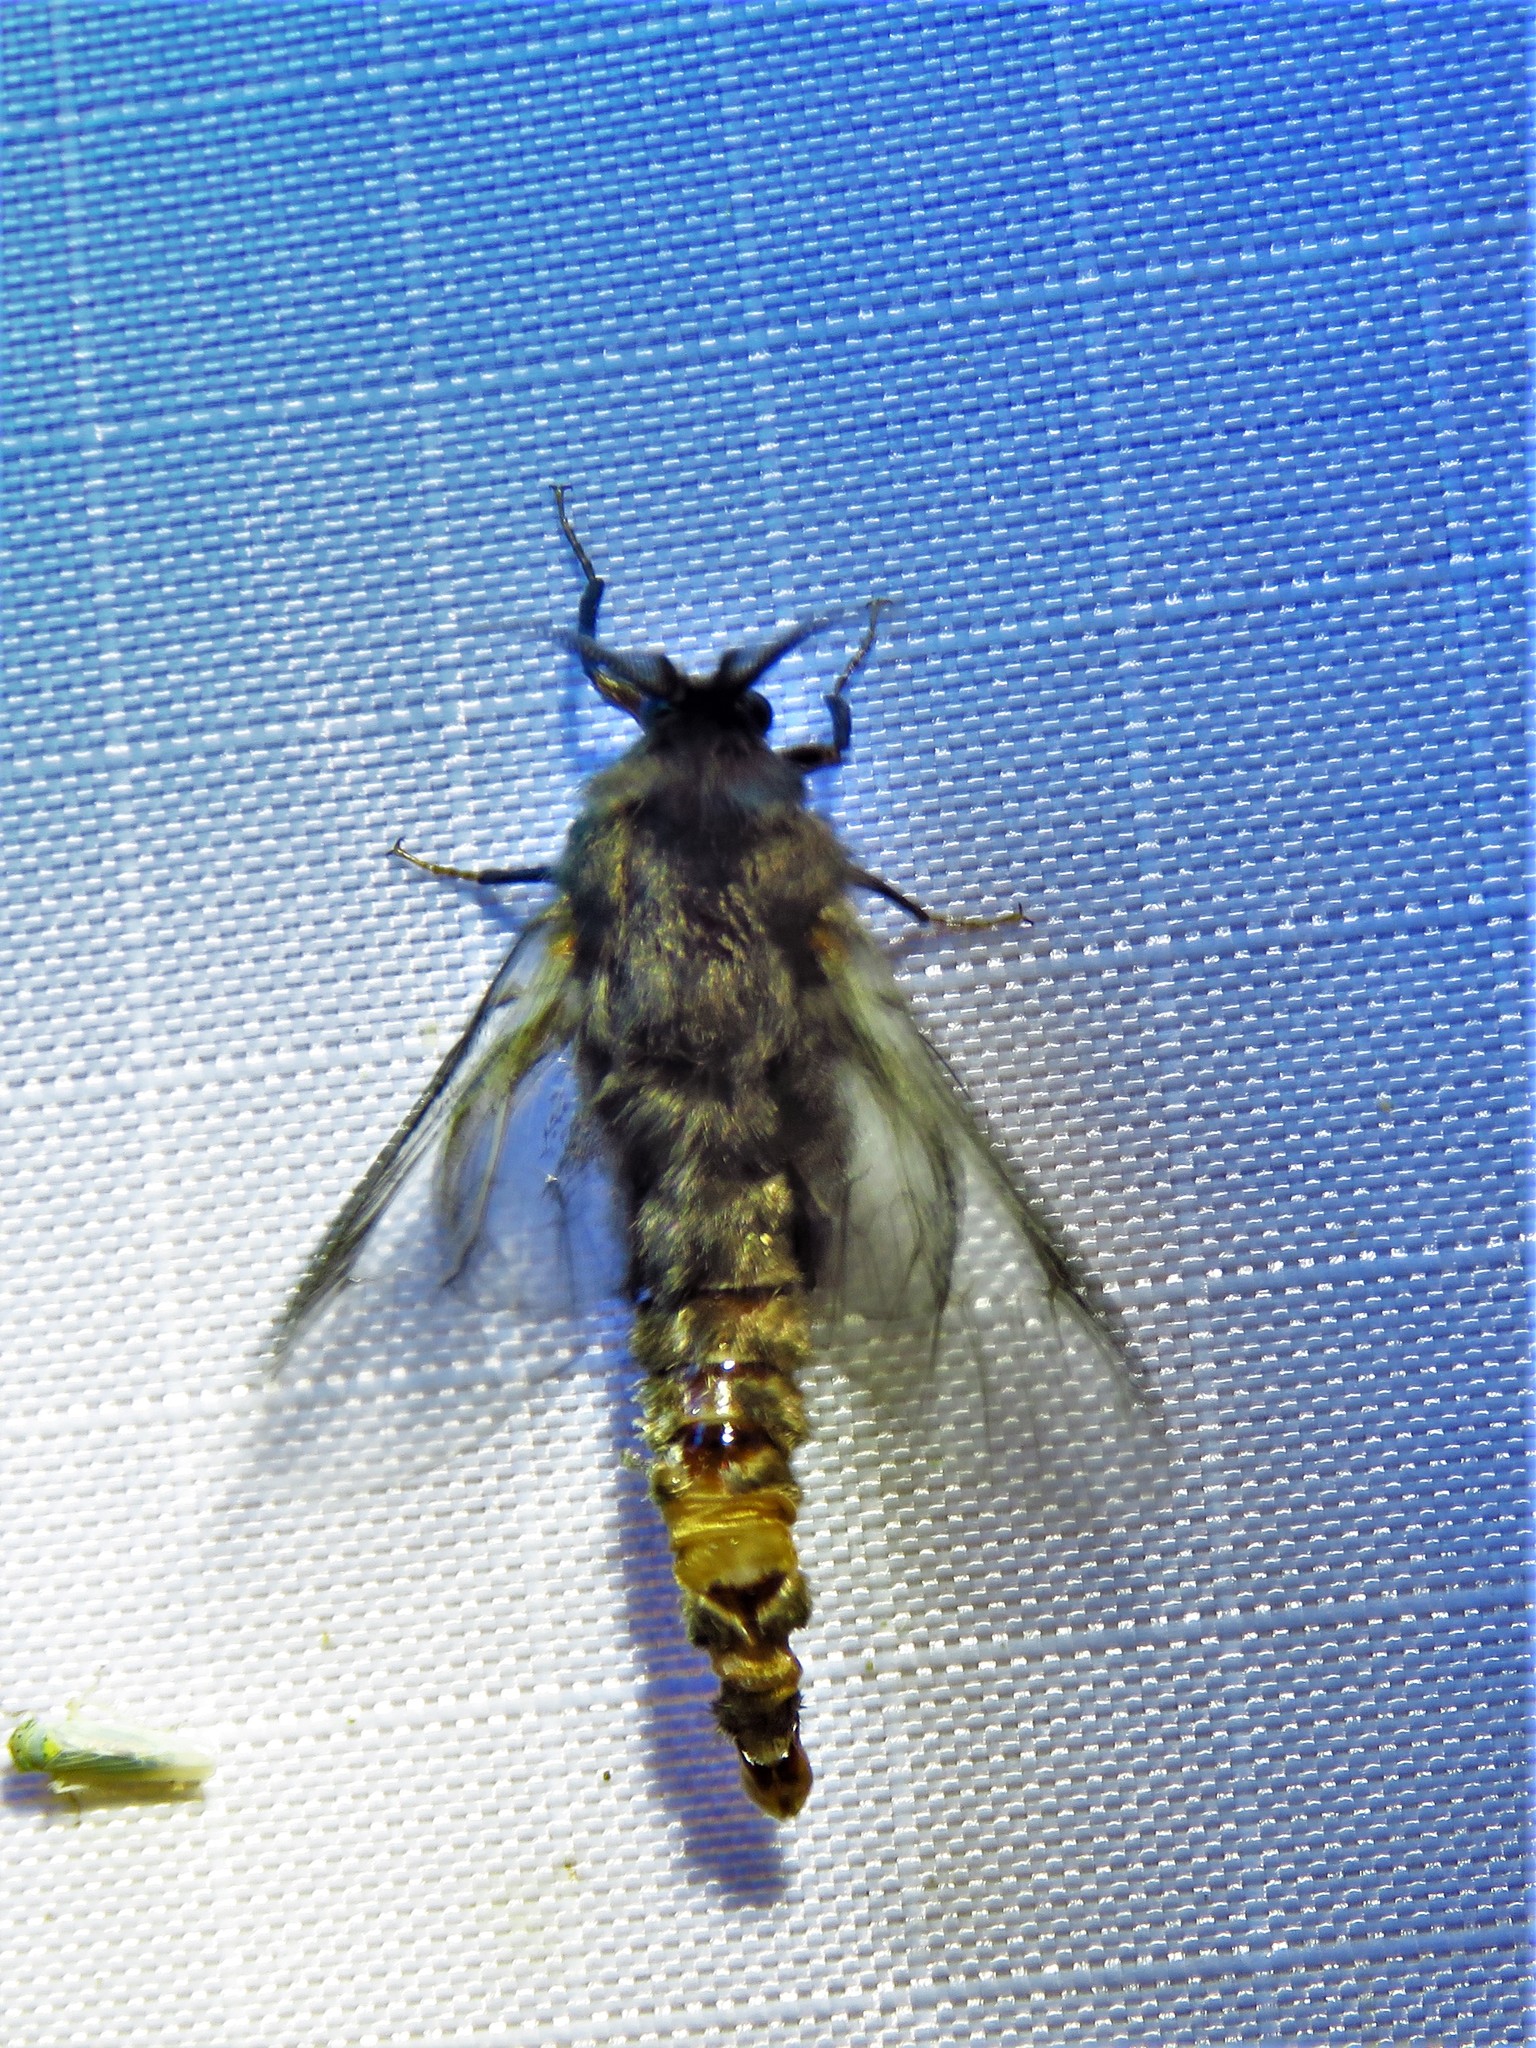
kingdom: Animalia
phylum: Arthropoda
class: Insecta
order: Lepidoptera
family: Psychidae
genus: Thyridopteryx
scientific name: Thyridopteryx ephemeraeformis
